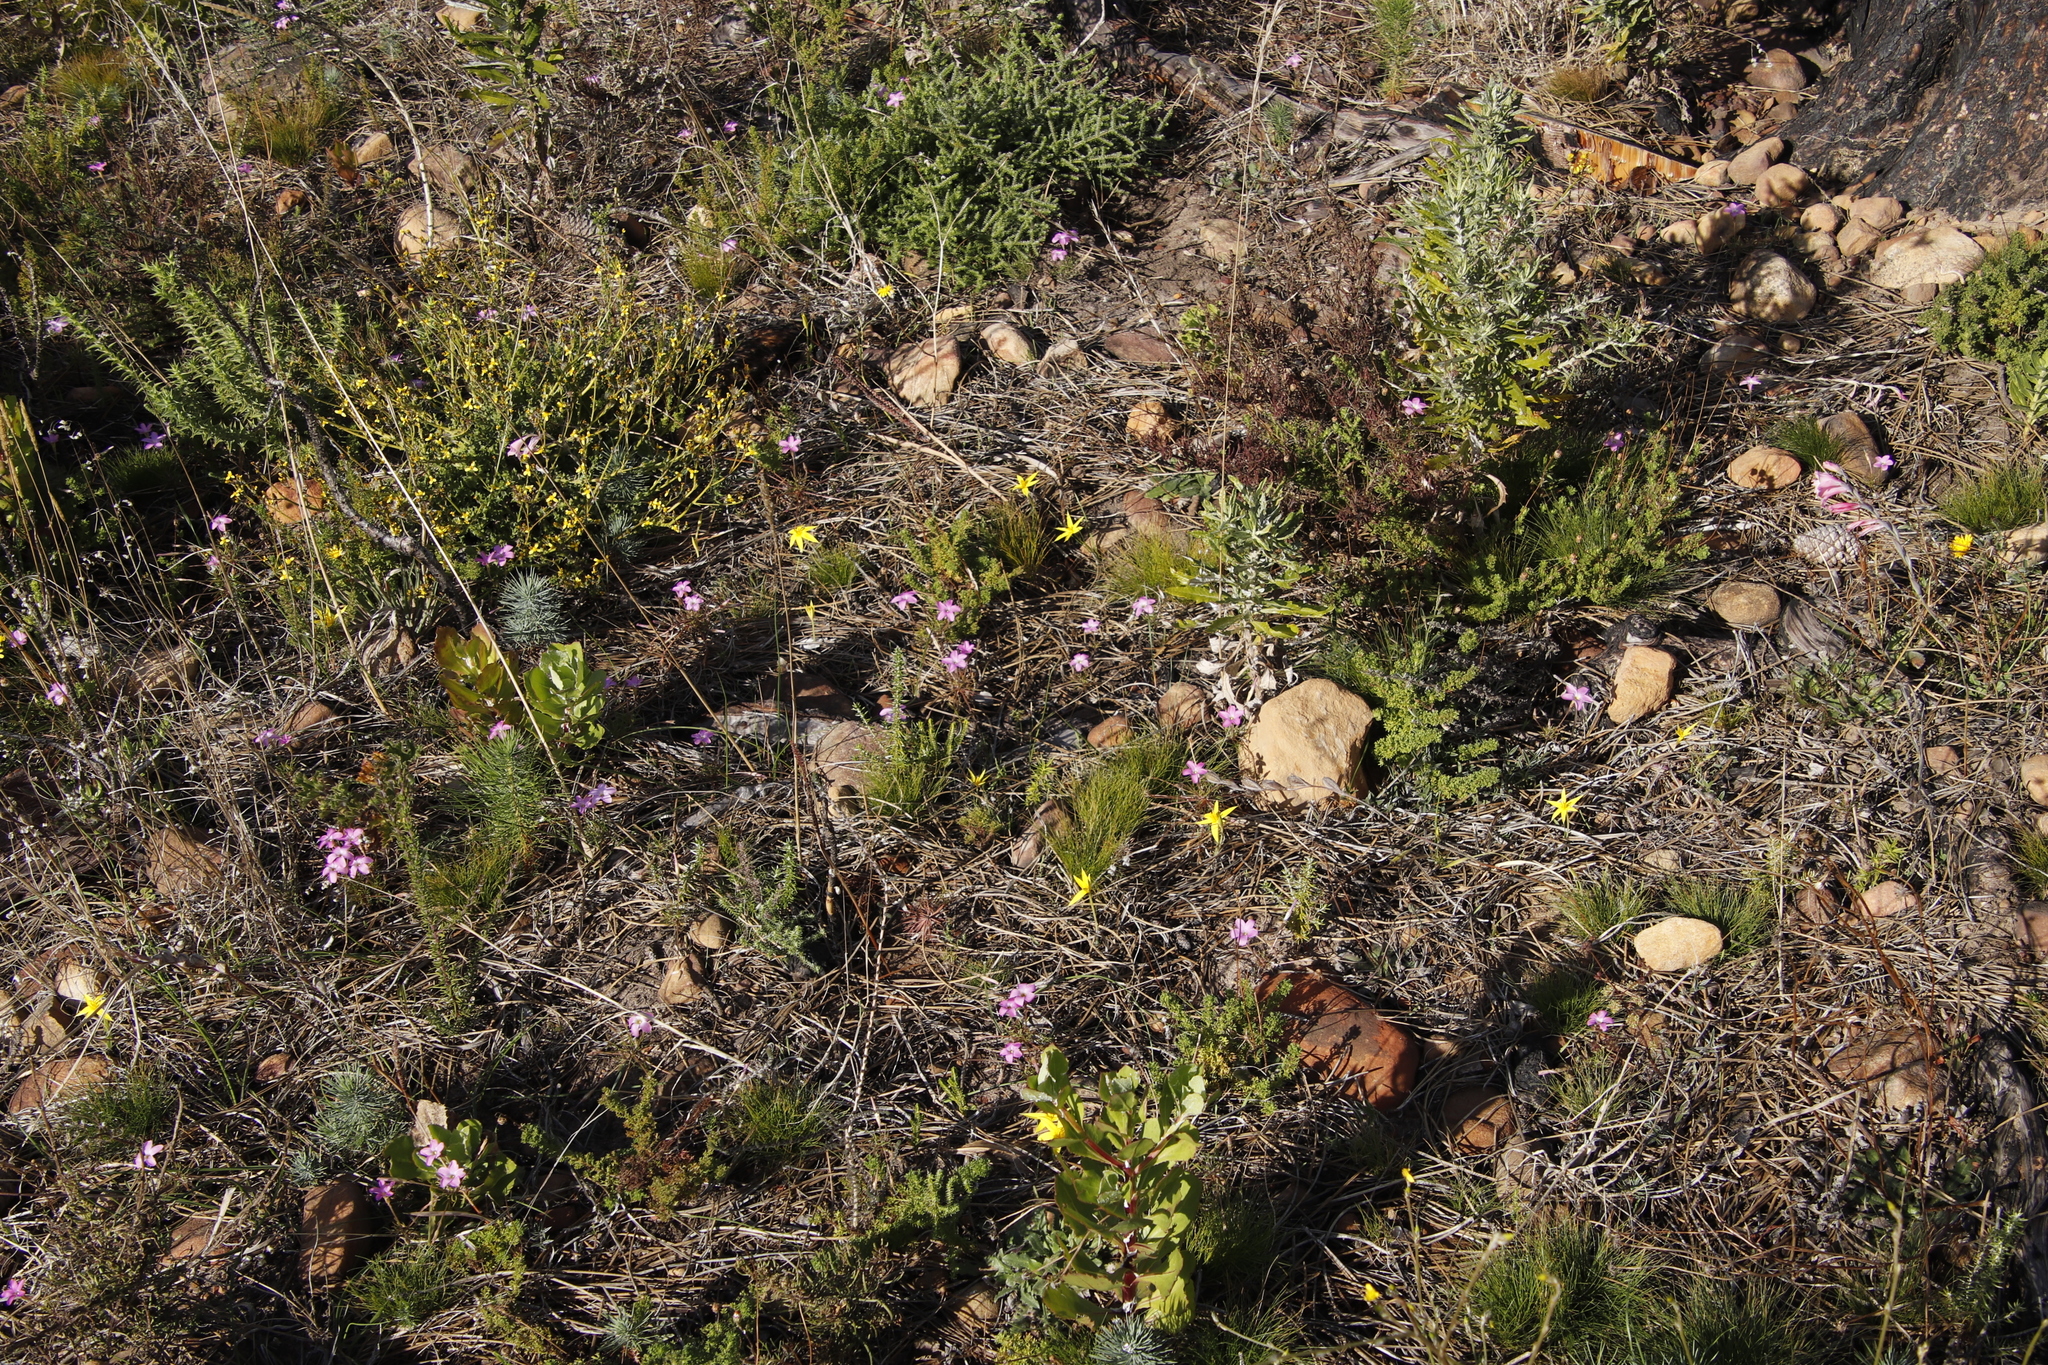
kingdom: Plantae
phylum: Tracheophyta
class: Liliopsida
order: Asparagales
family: Hypoxidaceae
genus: Empodium
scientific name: Empodium plicatum
